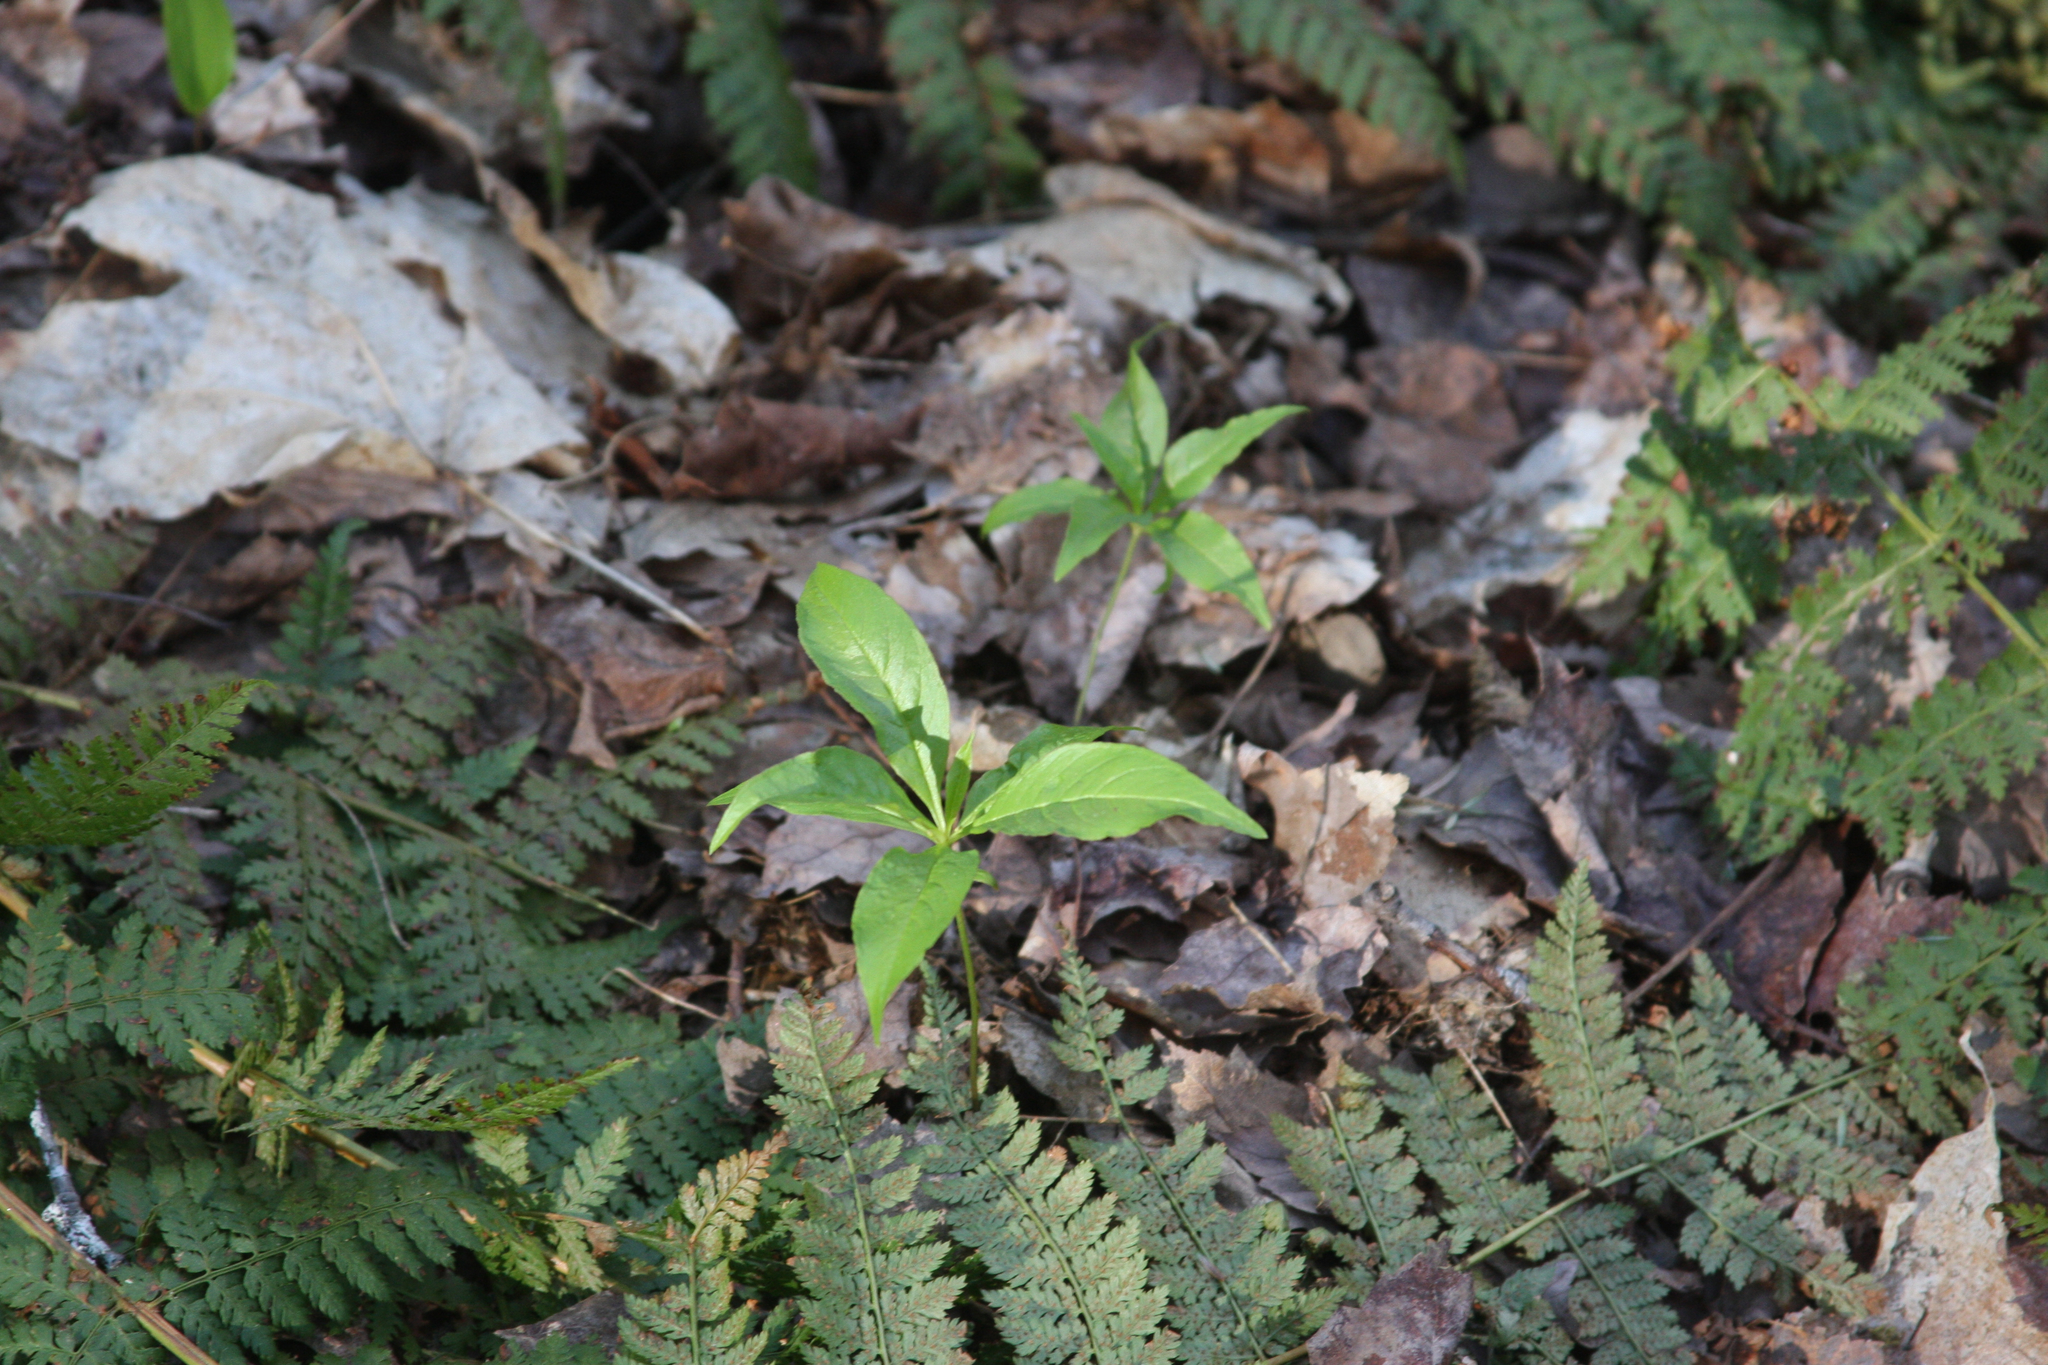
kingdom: Plantae
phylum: Tracheophyta
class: Magnoliopsida
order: Ericales
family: Primulaceae
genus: Lysimachia
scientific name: Lysimachia borealis
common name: American starflower
